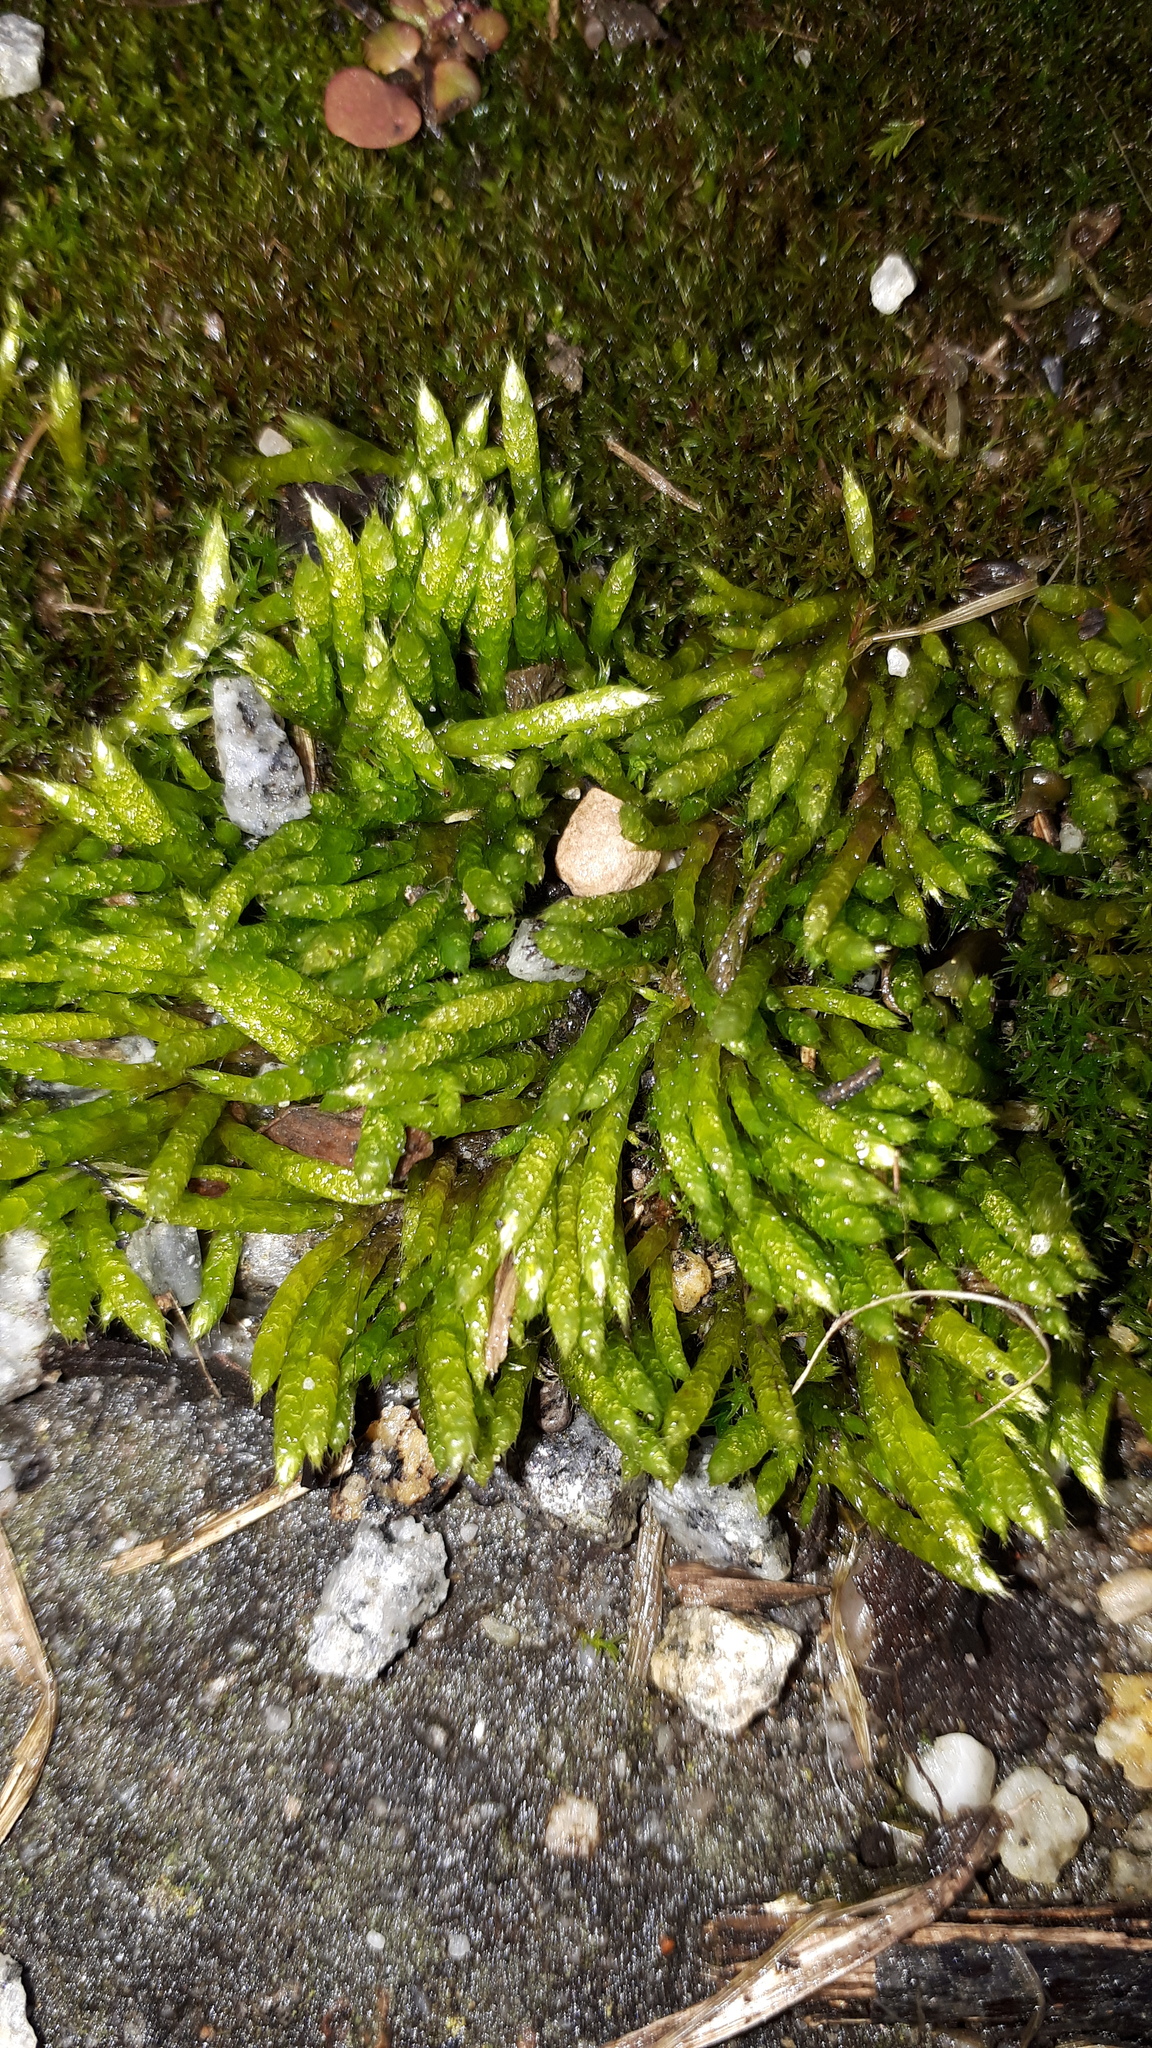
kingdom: Plantae
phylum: Bryophyta
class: Bryopsida
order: Hypnales
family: Brachytheciaceae
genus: Brachythecium
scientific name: Brachythecium albicans
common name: Whitish ragged moss
